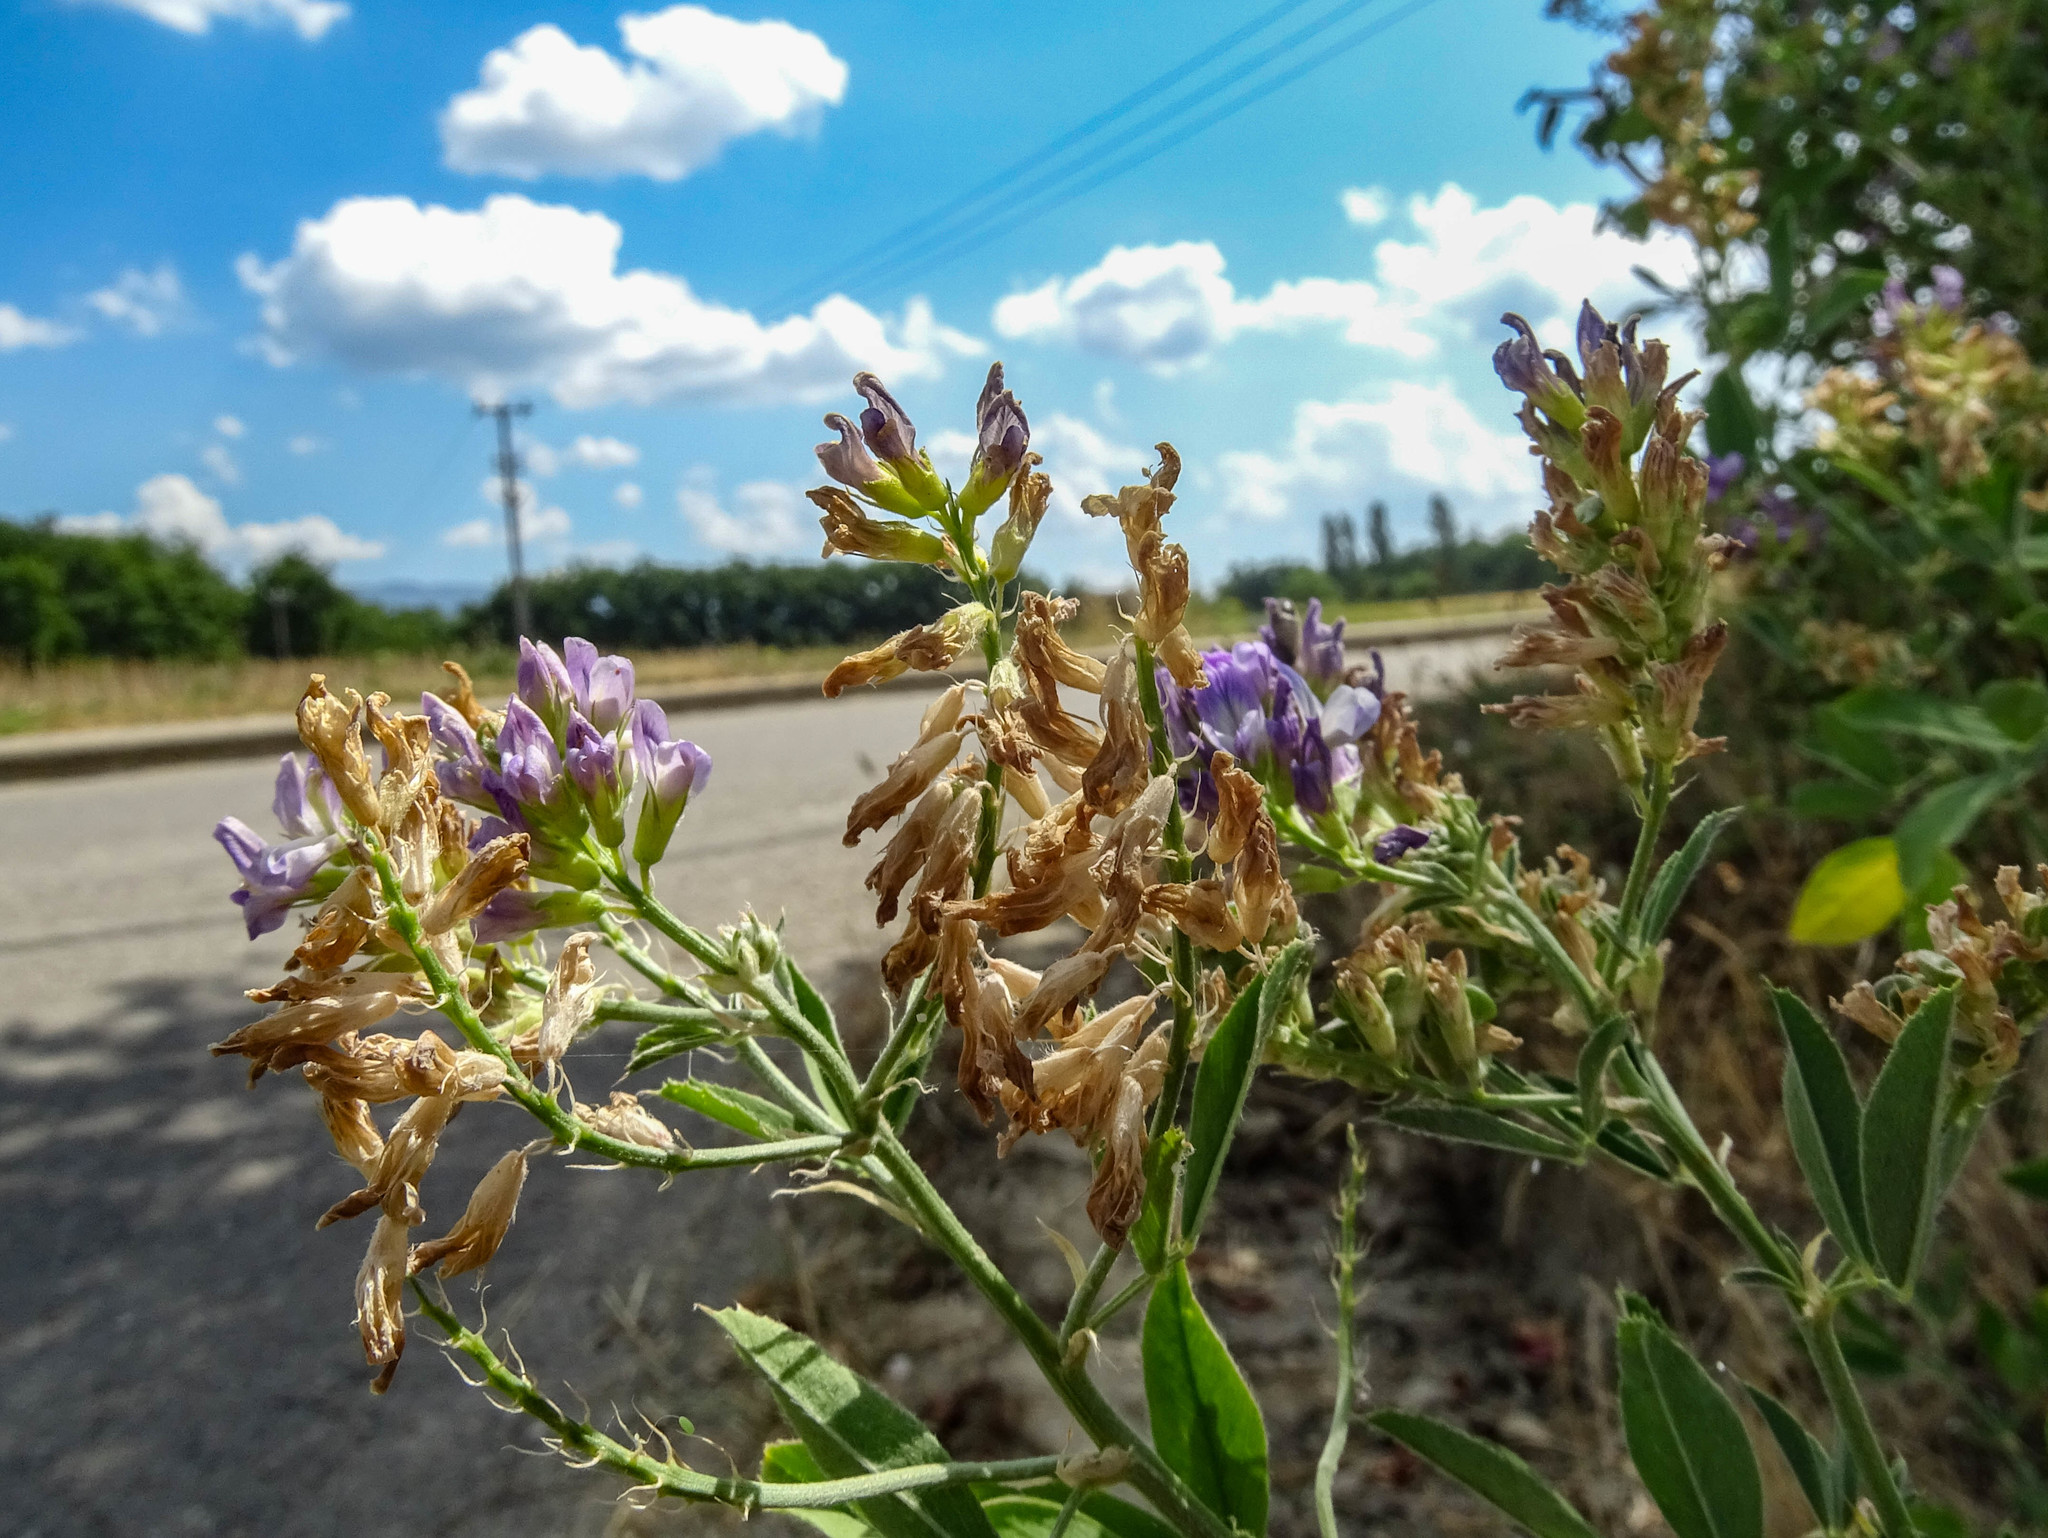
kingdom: Plantae
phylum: Tracheophyta
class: Magnoliopsida
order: Fabales
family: Fabaceae
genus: Medicago
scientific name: Medicago sativa
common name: Alfalfa
